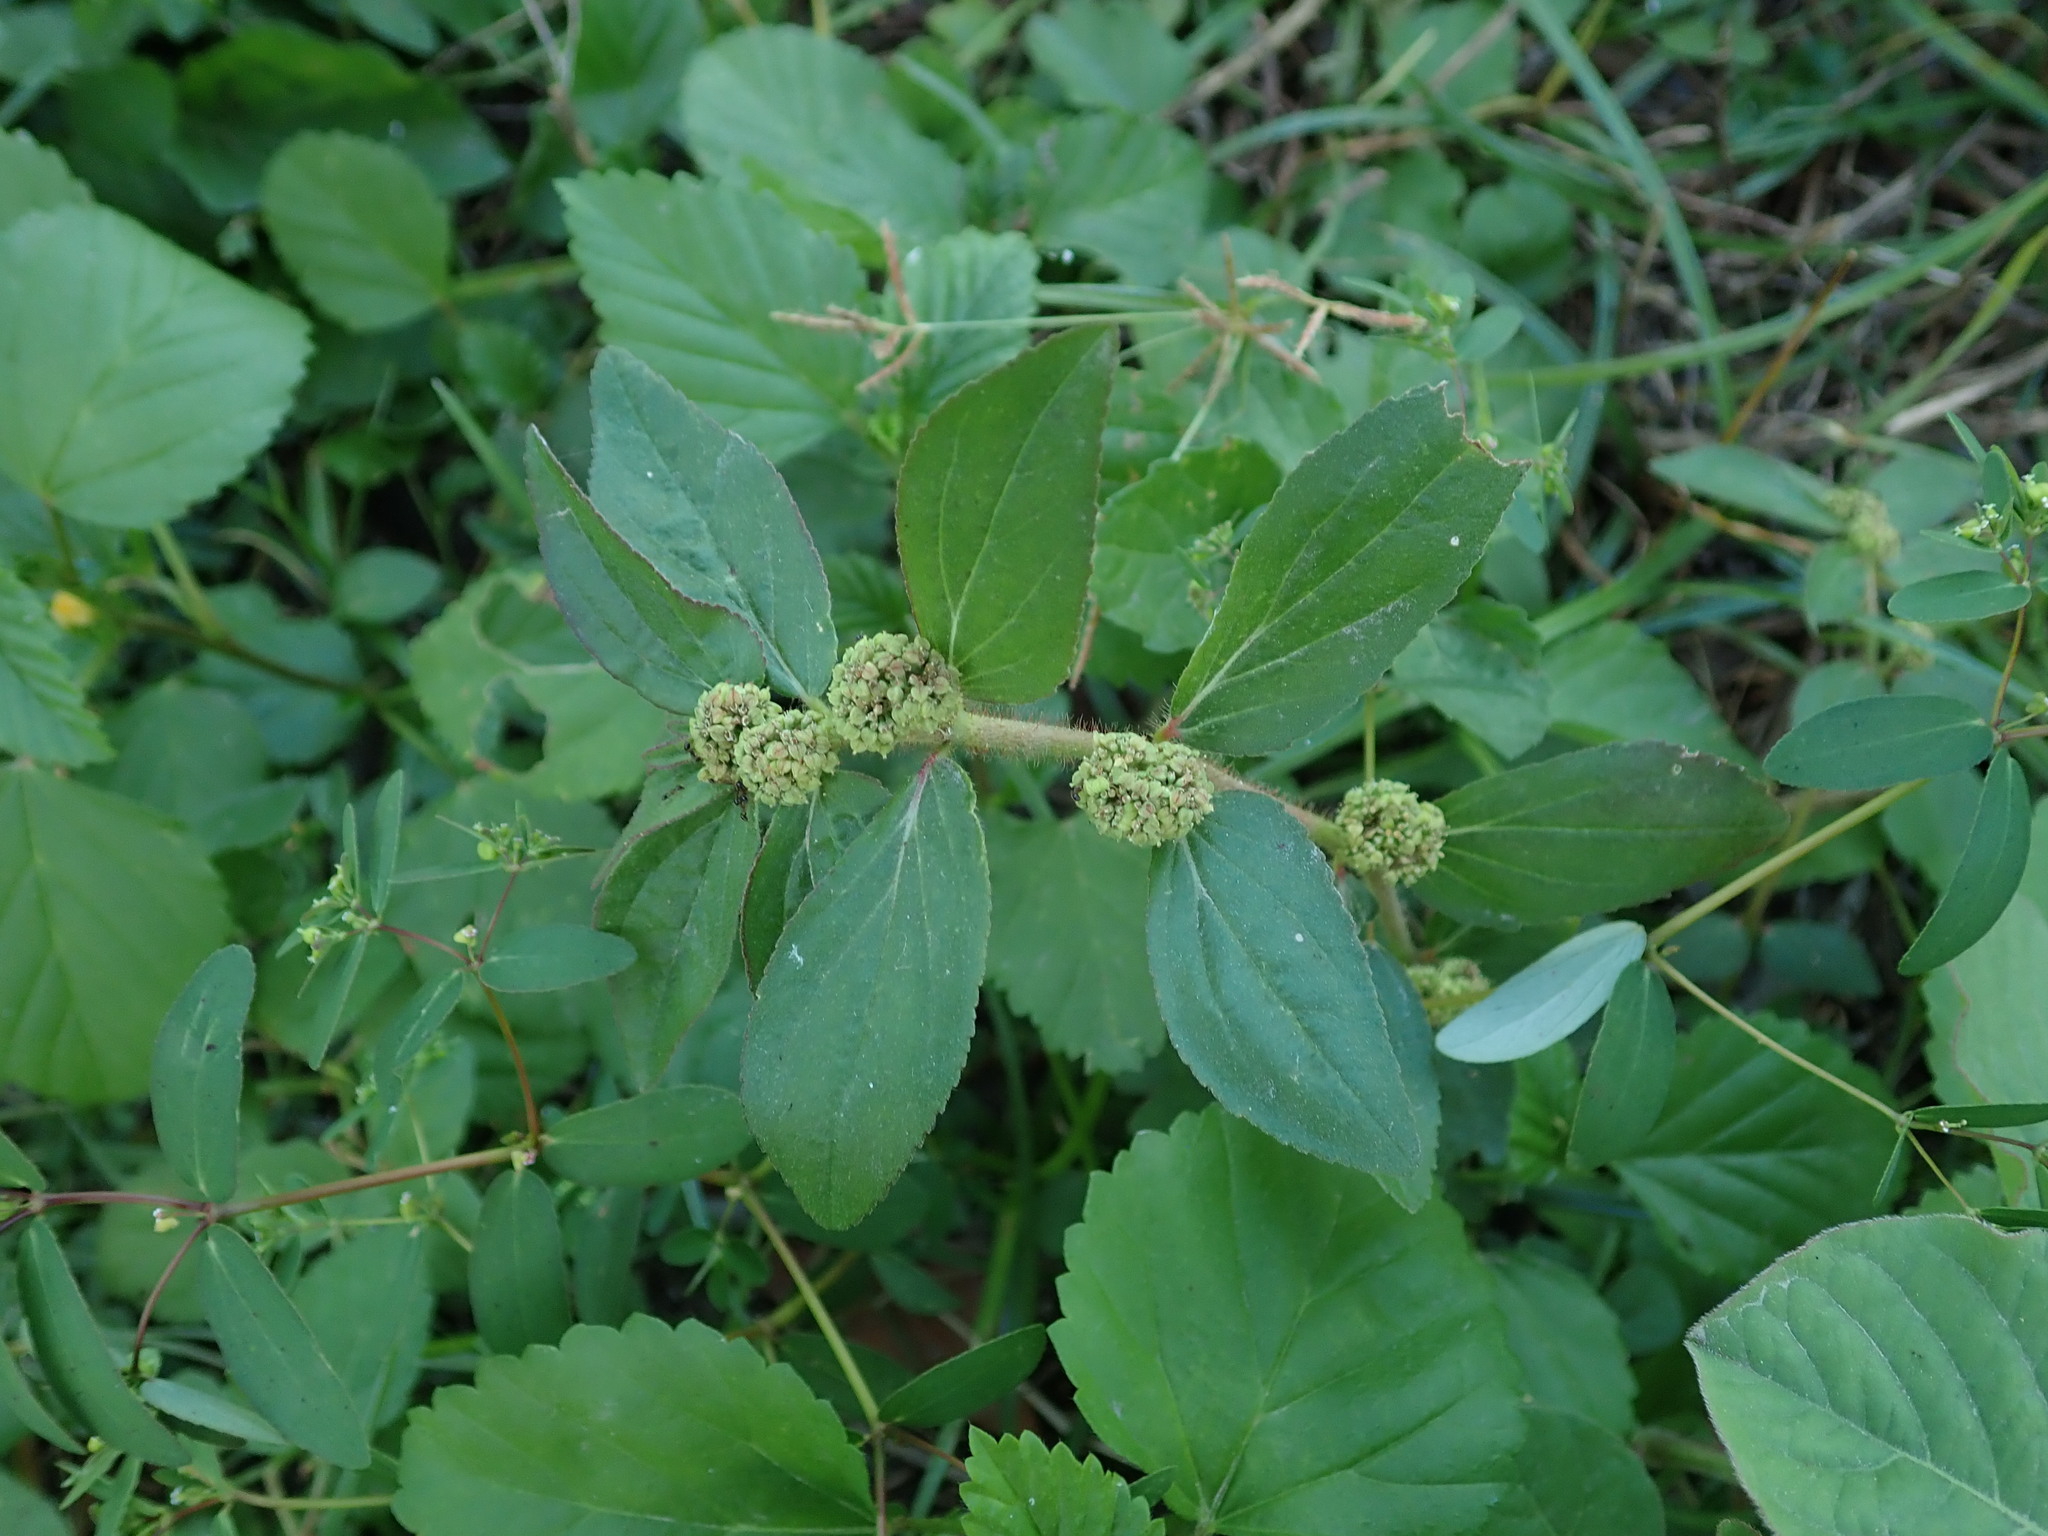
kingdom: Plantae
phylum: Tracheophyta
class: Magnoliopsida
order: Malpighiales
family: Euphorbiaceae
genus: Euphorbia
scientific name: Euphorbia hirta
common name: Pillpod sandmat
